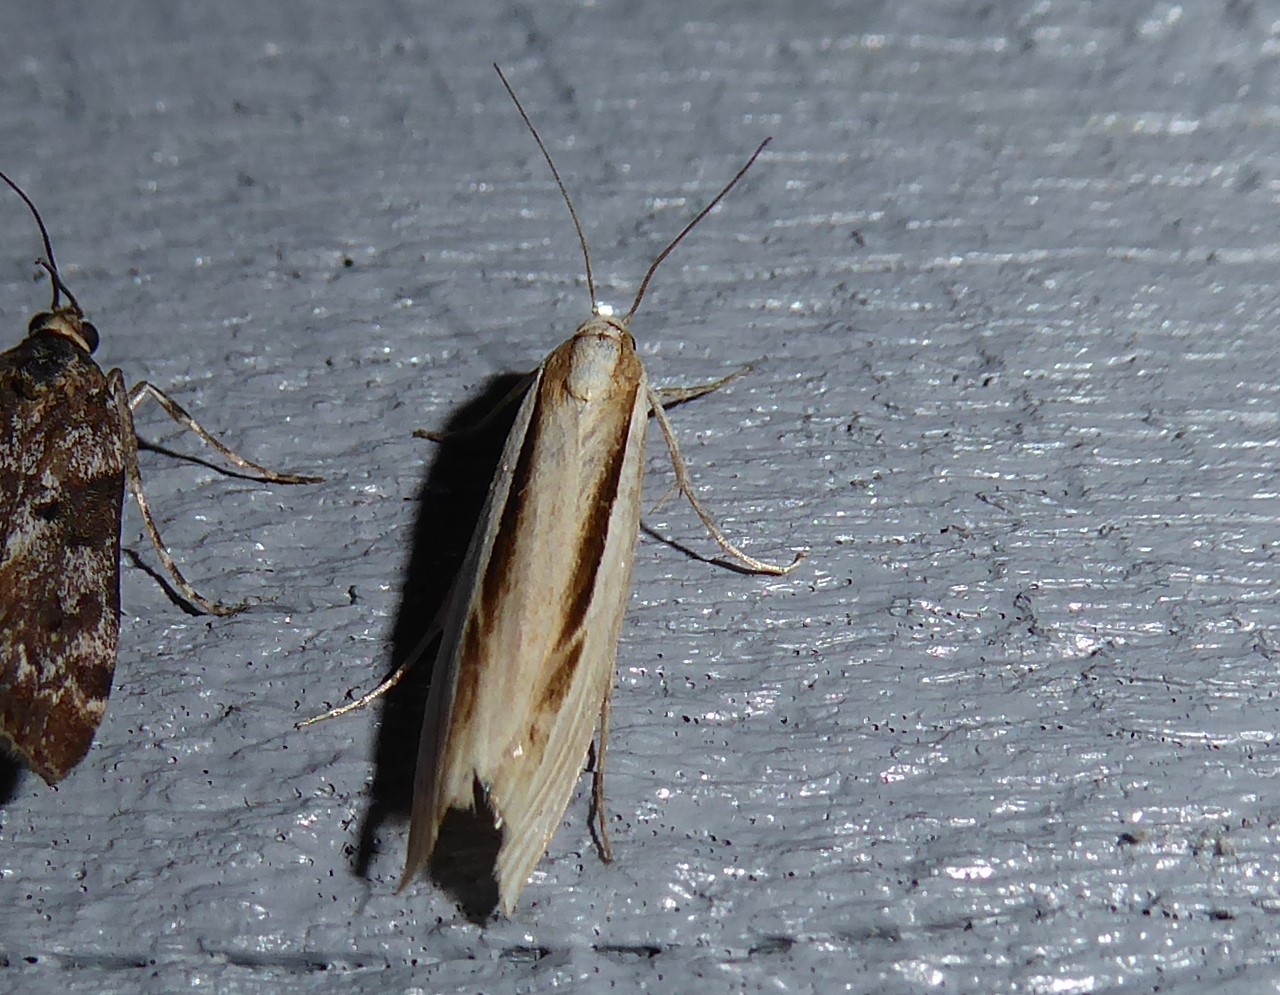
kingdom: Animalia
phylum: Arthropoda
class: Insecta
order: Lepidoptera
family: Crambidae
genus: Orocrambus
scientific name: Orocrambus ramosellus
